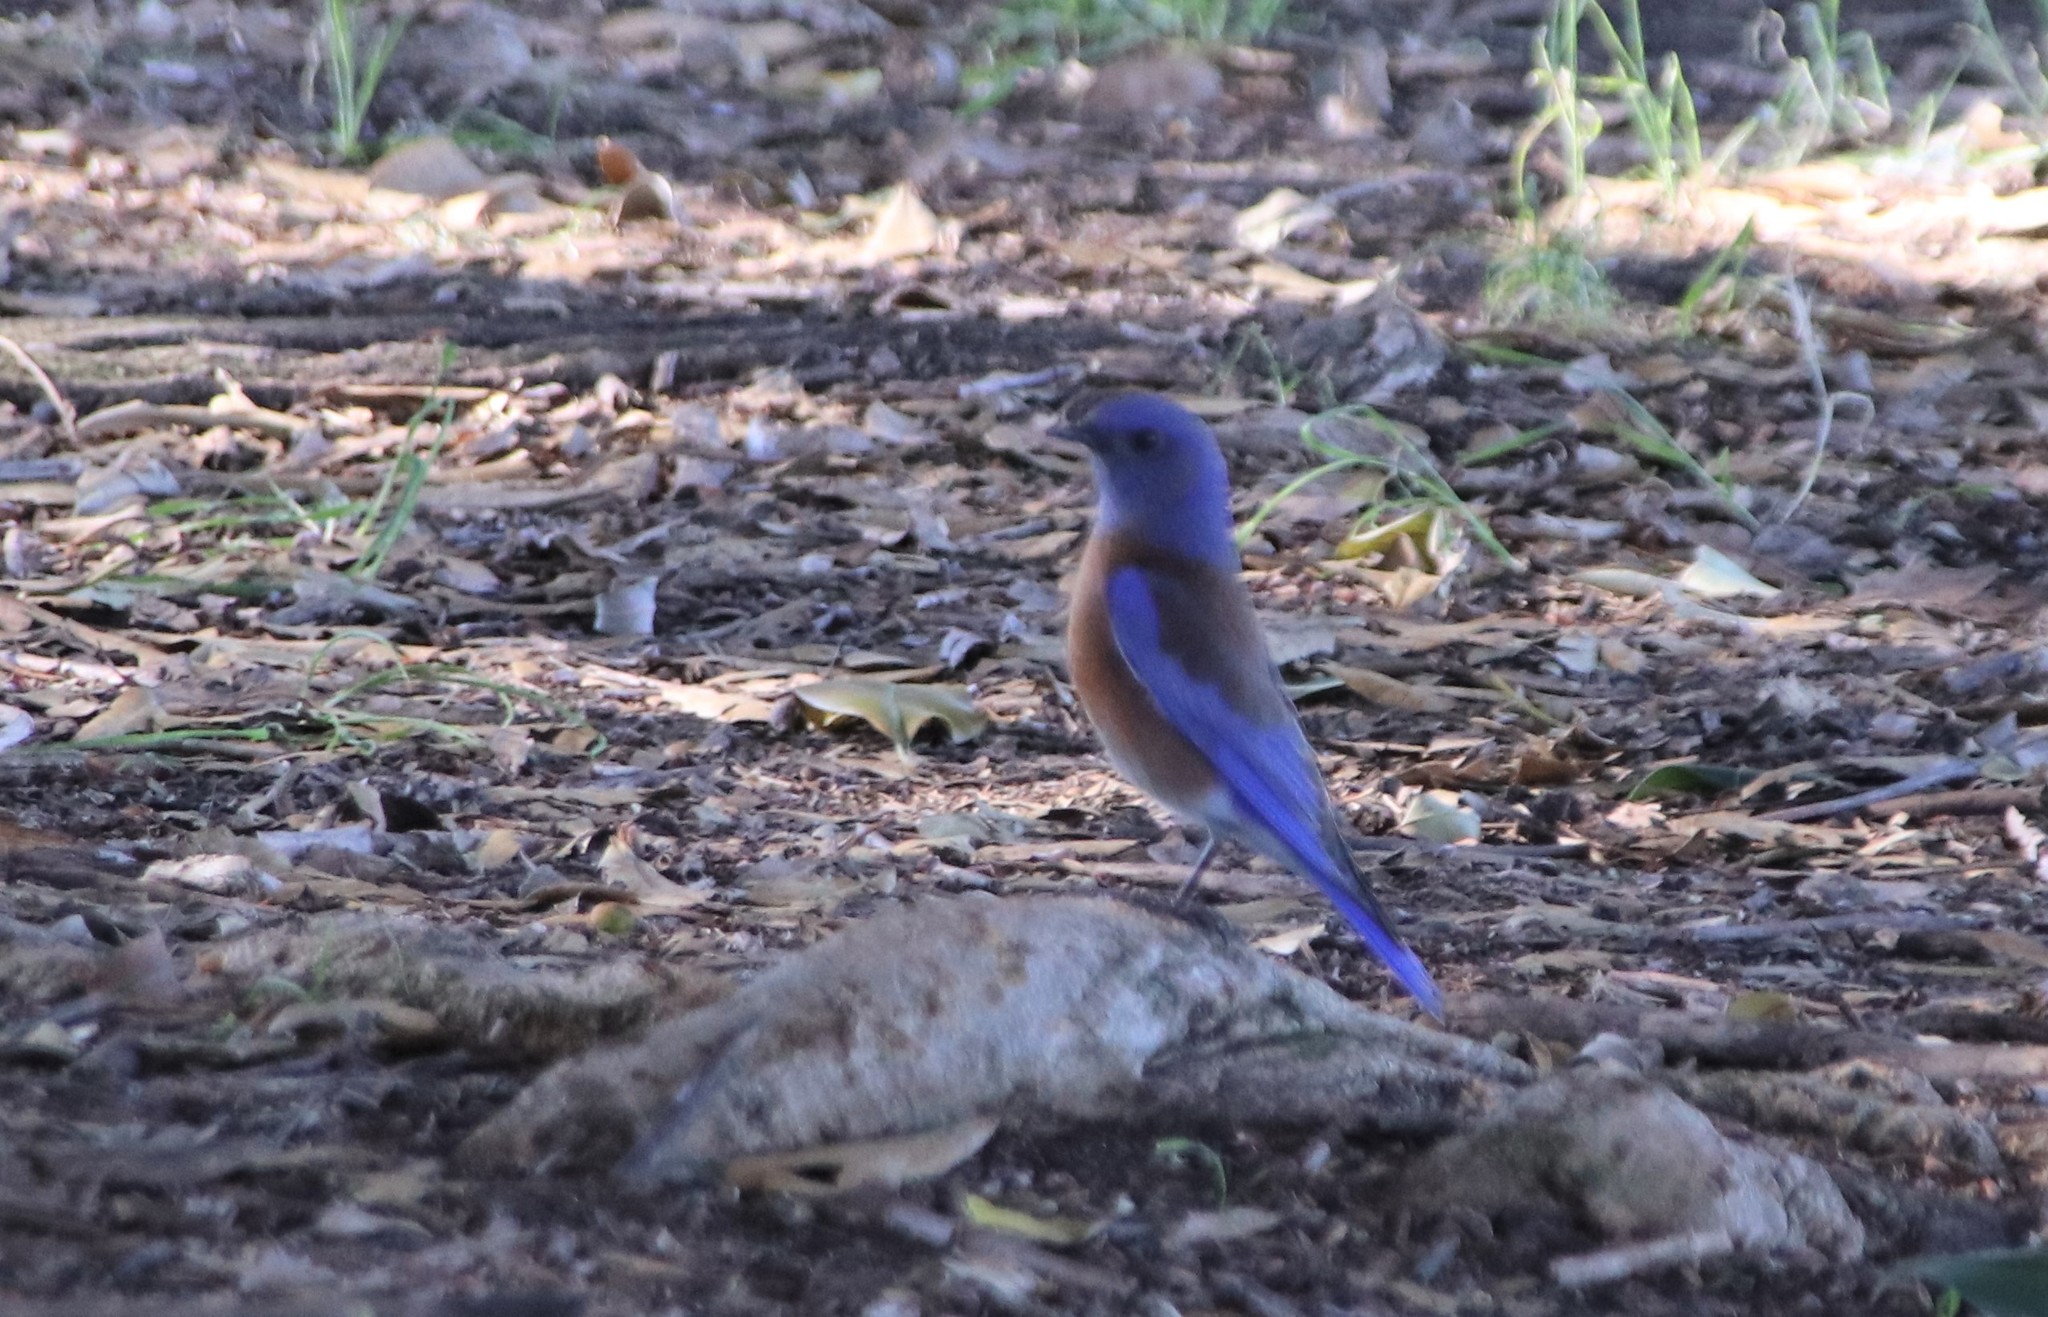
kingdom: Animalia
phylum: Chordata
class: Aves
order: Passeriformes
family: Turdidae
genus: Sialia
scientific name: Sialia mexicana
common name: Western bluebird
